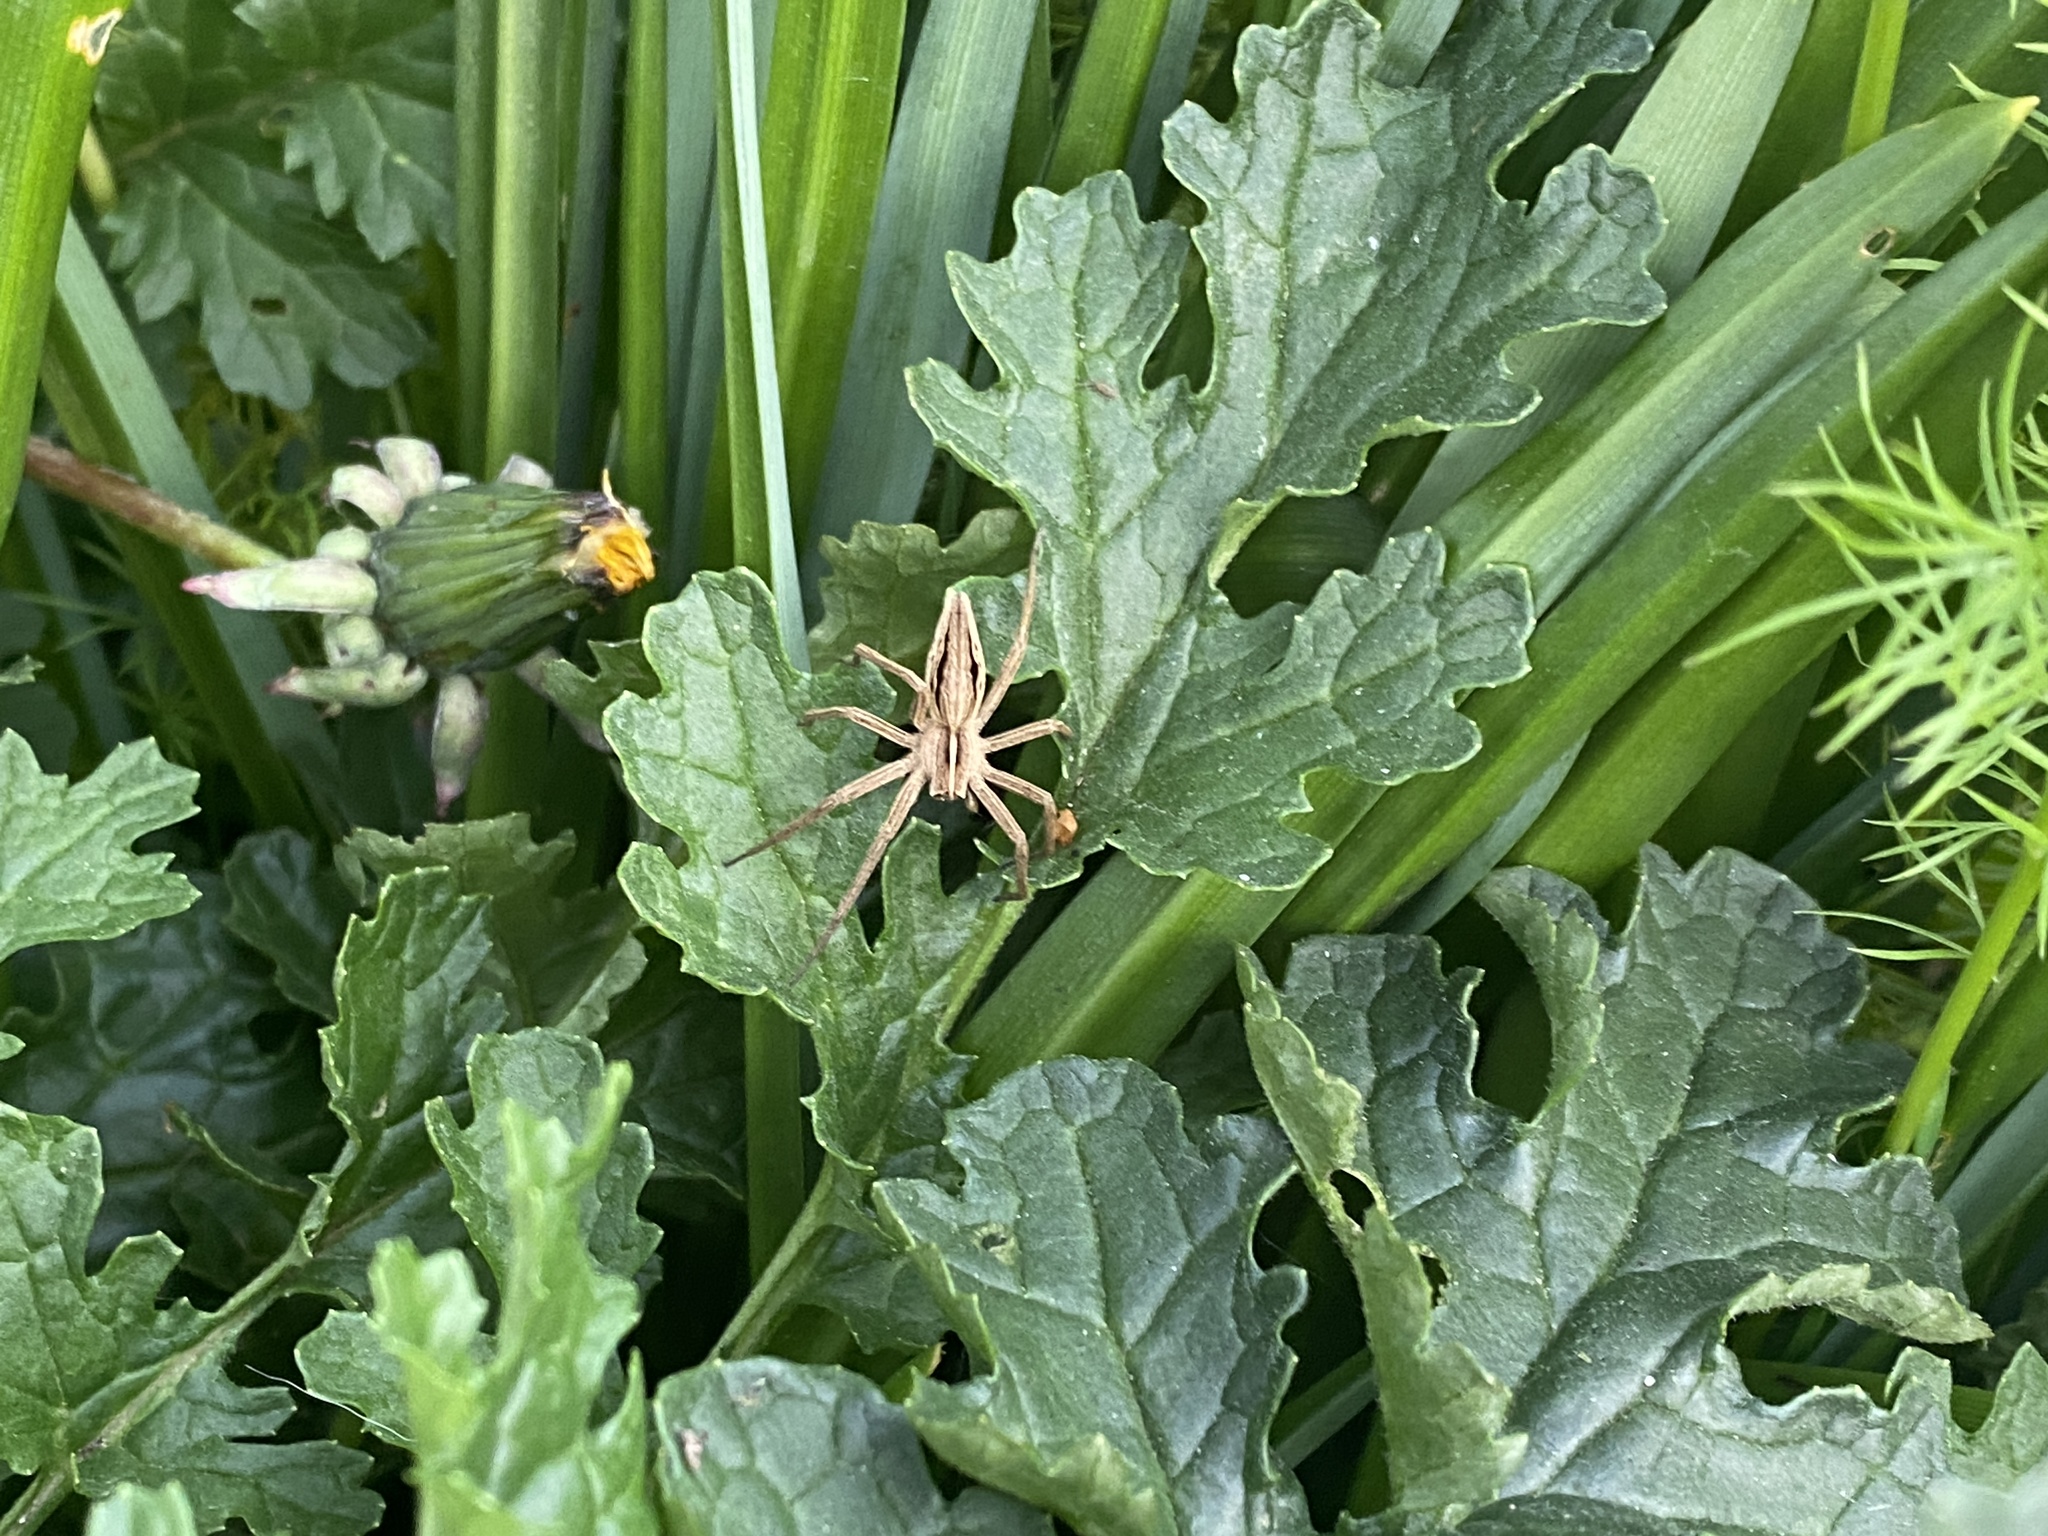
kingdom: Animalia
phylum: Arthropoda
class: Arachnida
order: Araneae
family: Pisauridae
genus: Pisaura
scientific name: Pisaura mirabilis
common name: Tent spider
